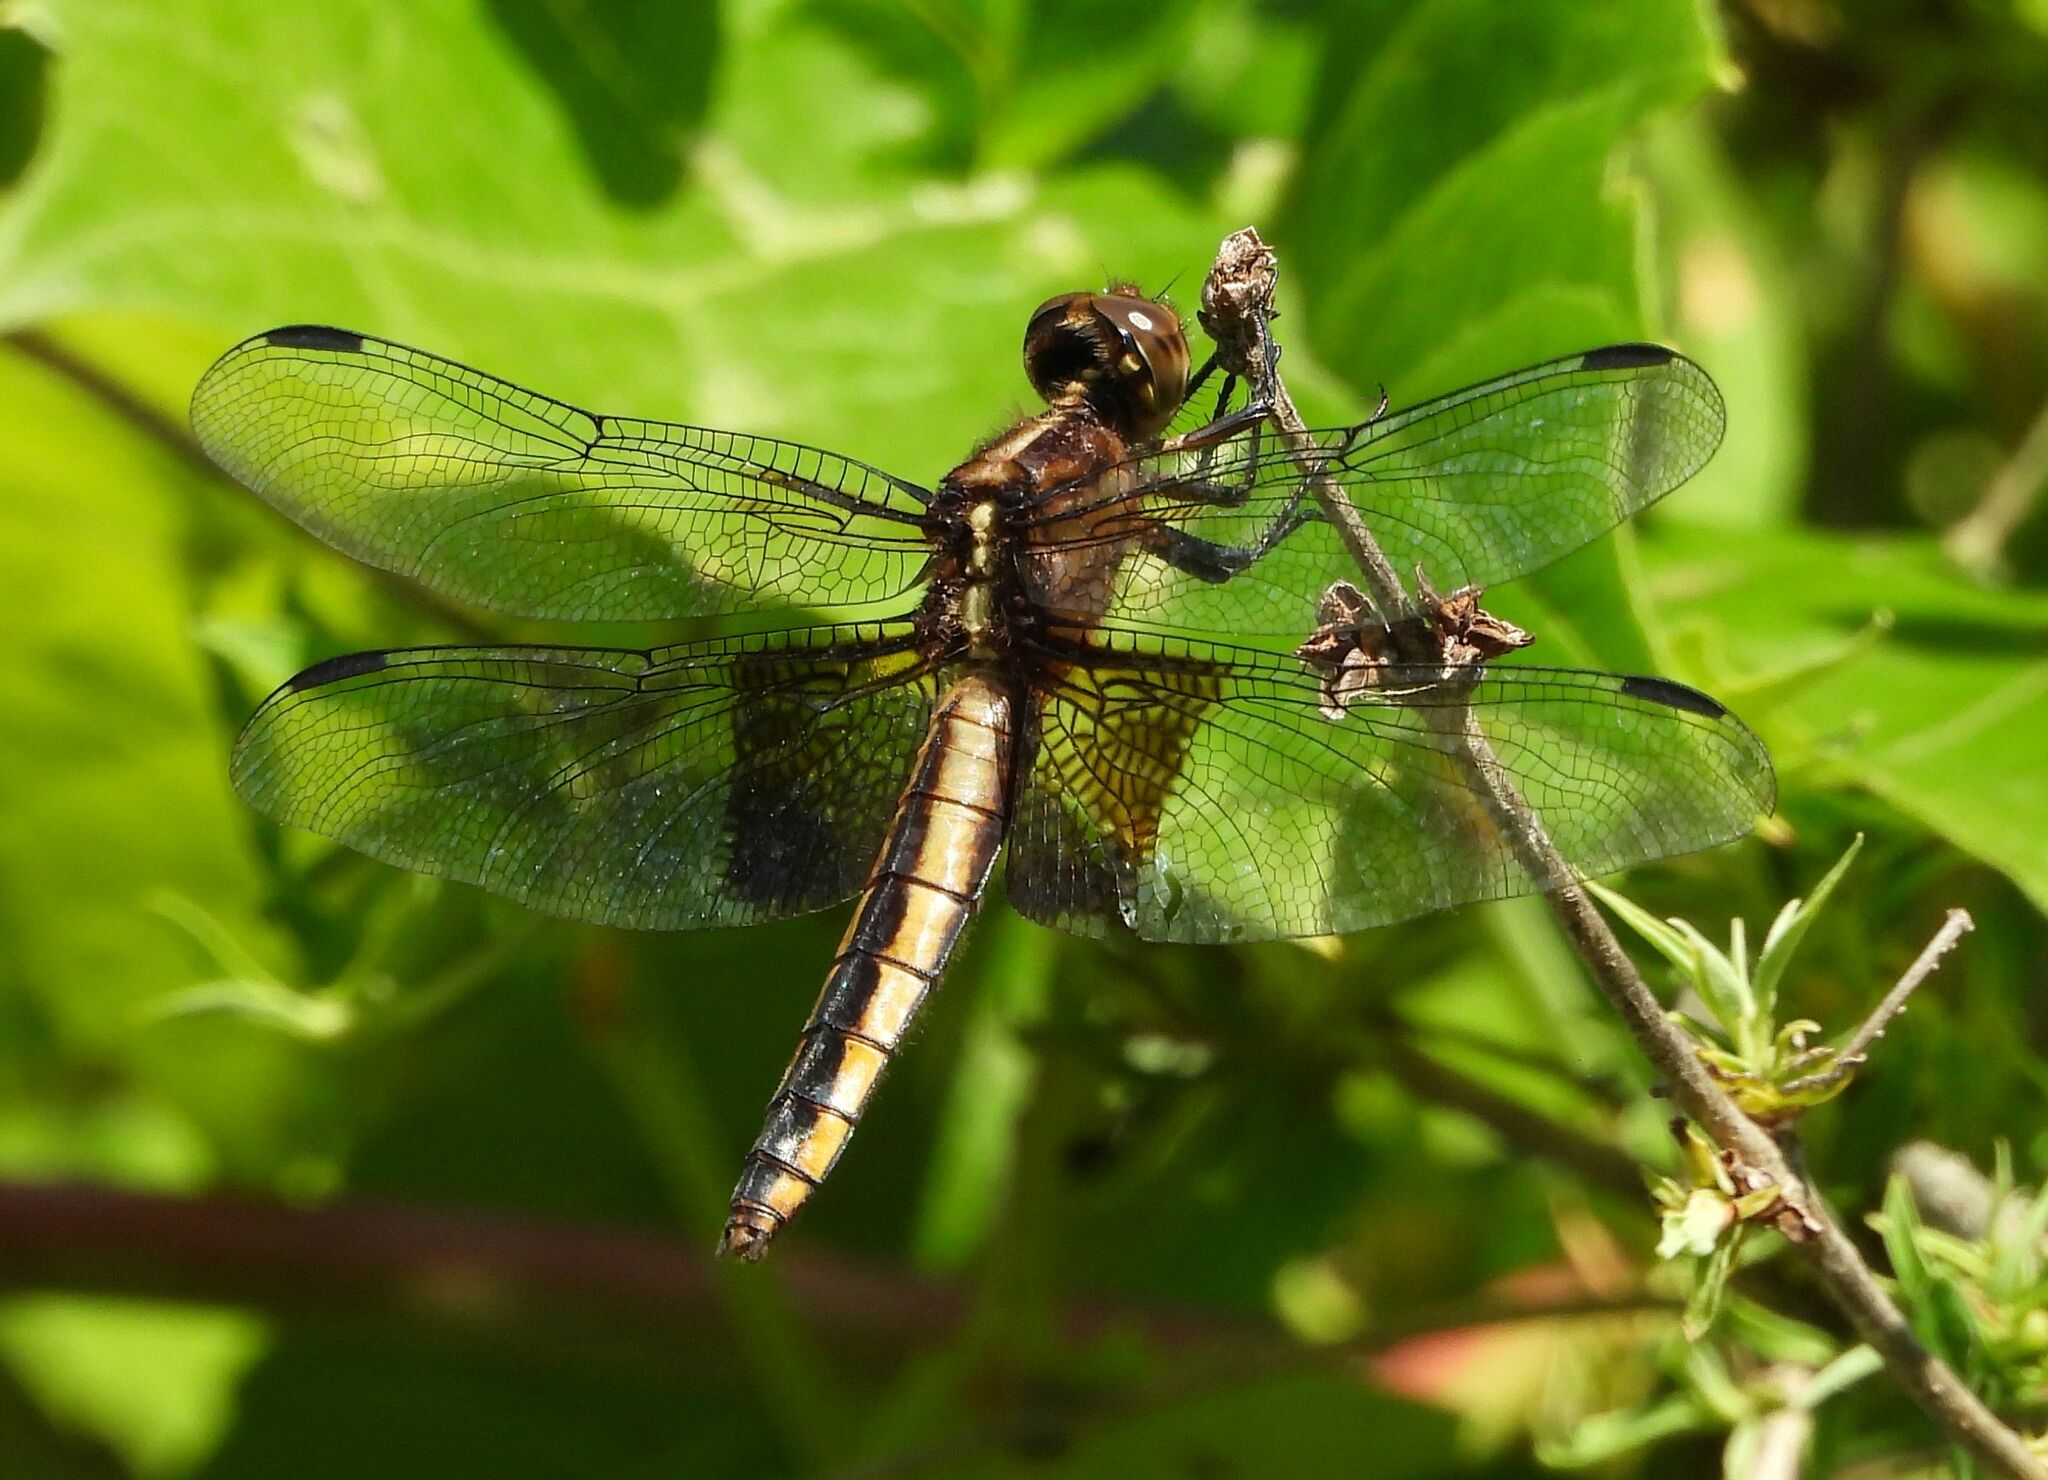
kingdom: Animalia
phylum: Arthropoda
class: Insecta
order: Odonata
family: Libellulidae
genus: Libellula
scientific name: Libellula luctuosa
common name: Widow skimmer
